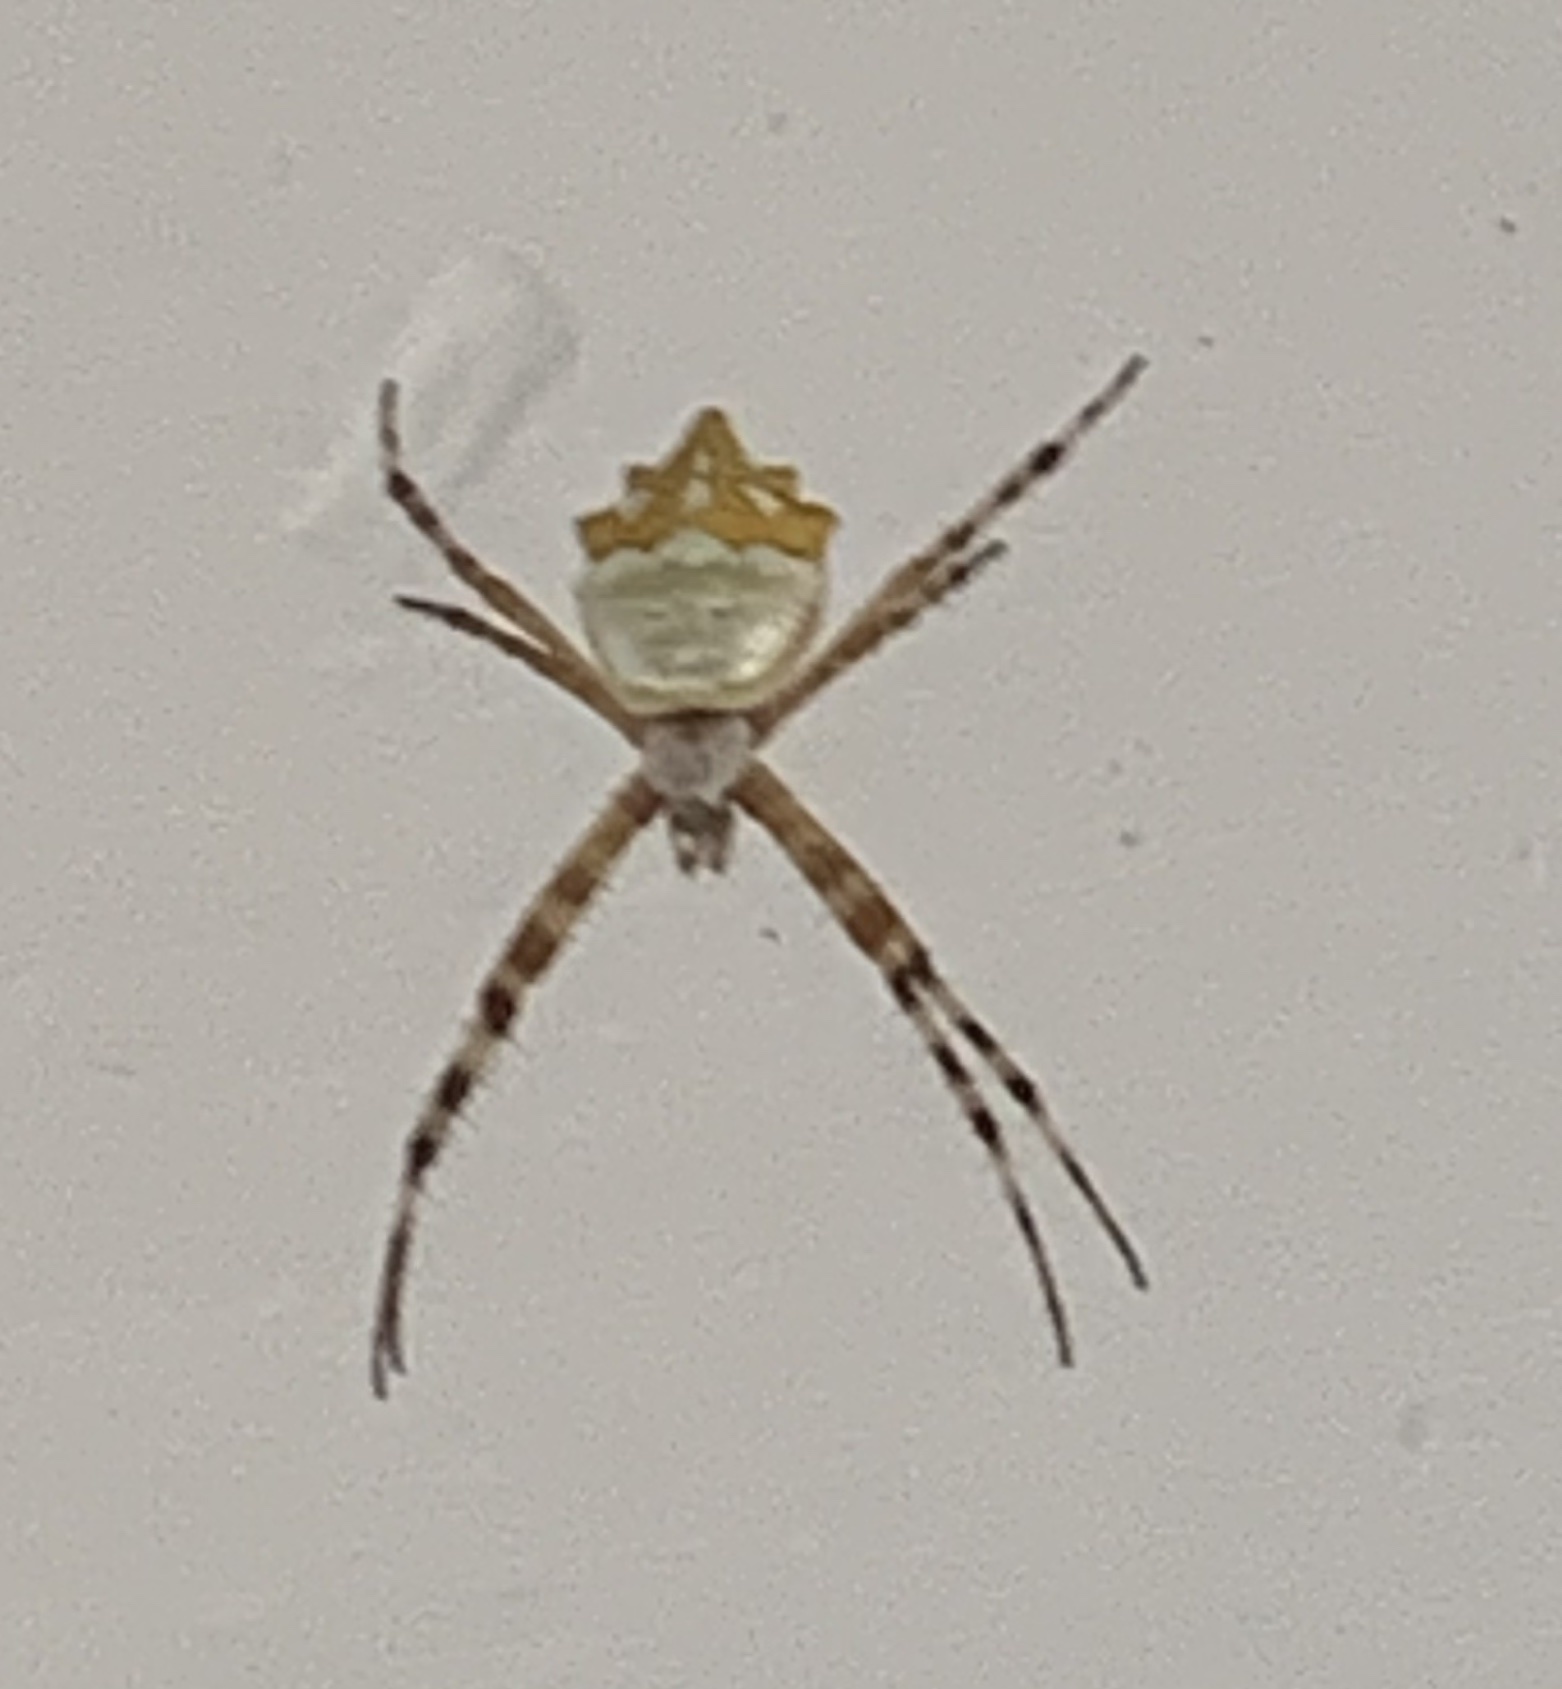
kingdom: Animalia
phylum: Arthropoda
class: Arachnida
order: Araneae
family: Araneidae
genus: Argiope
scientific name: Argiope argentata
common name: Orb weavers
